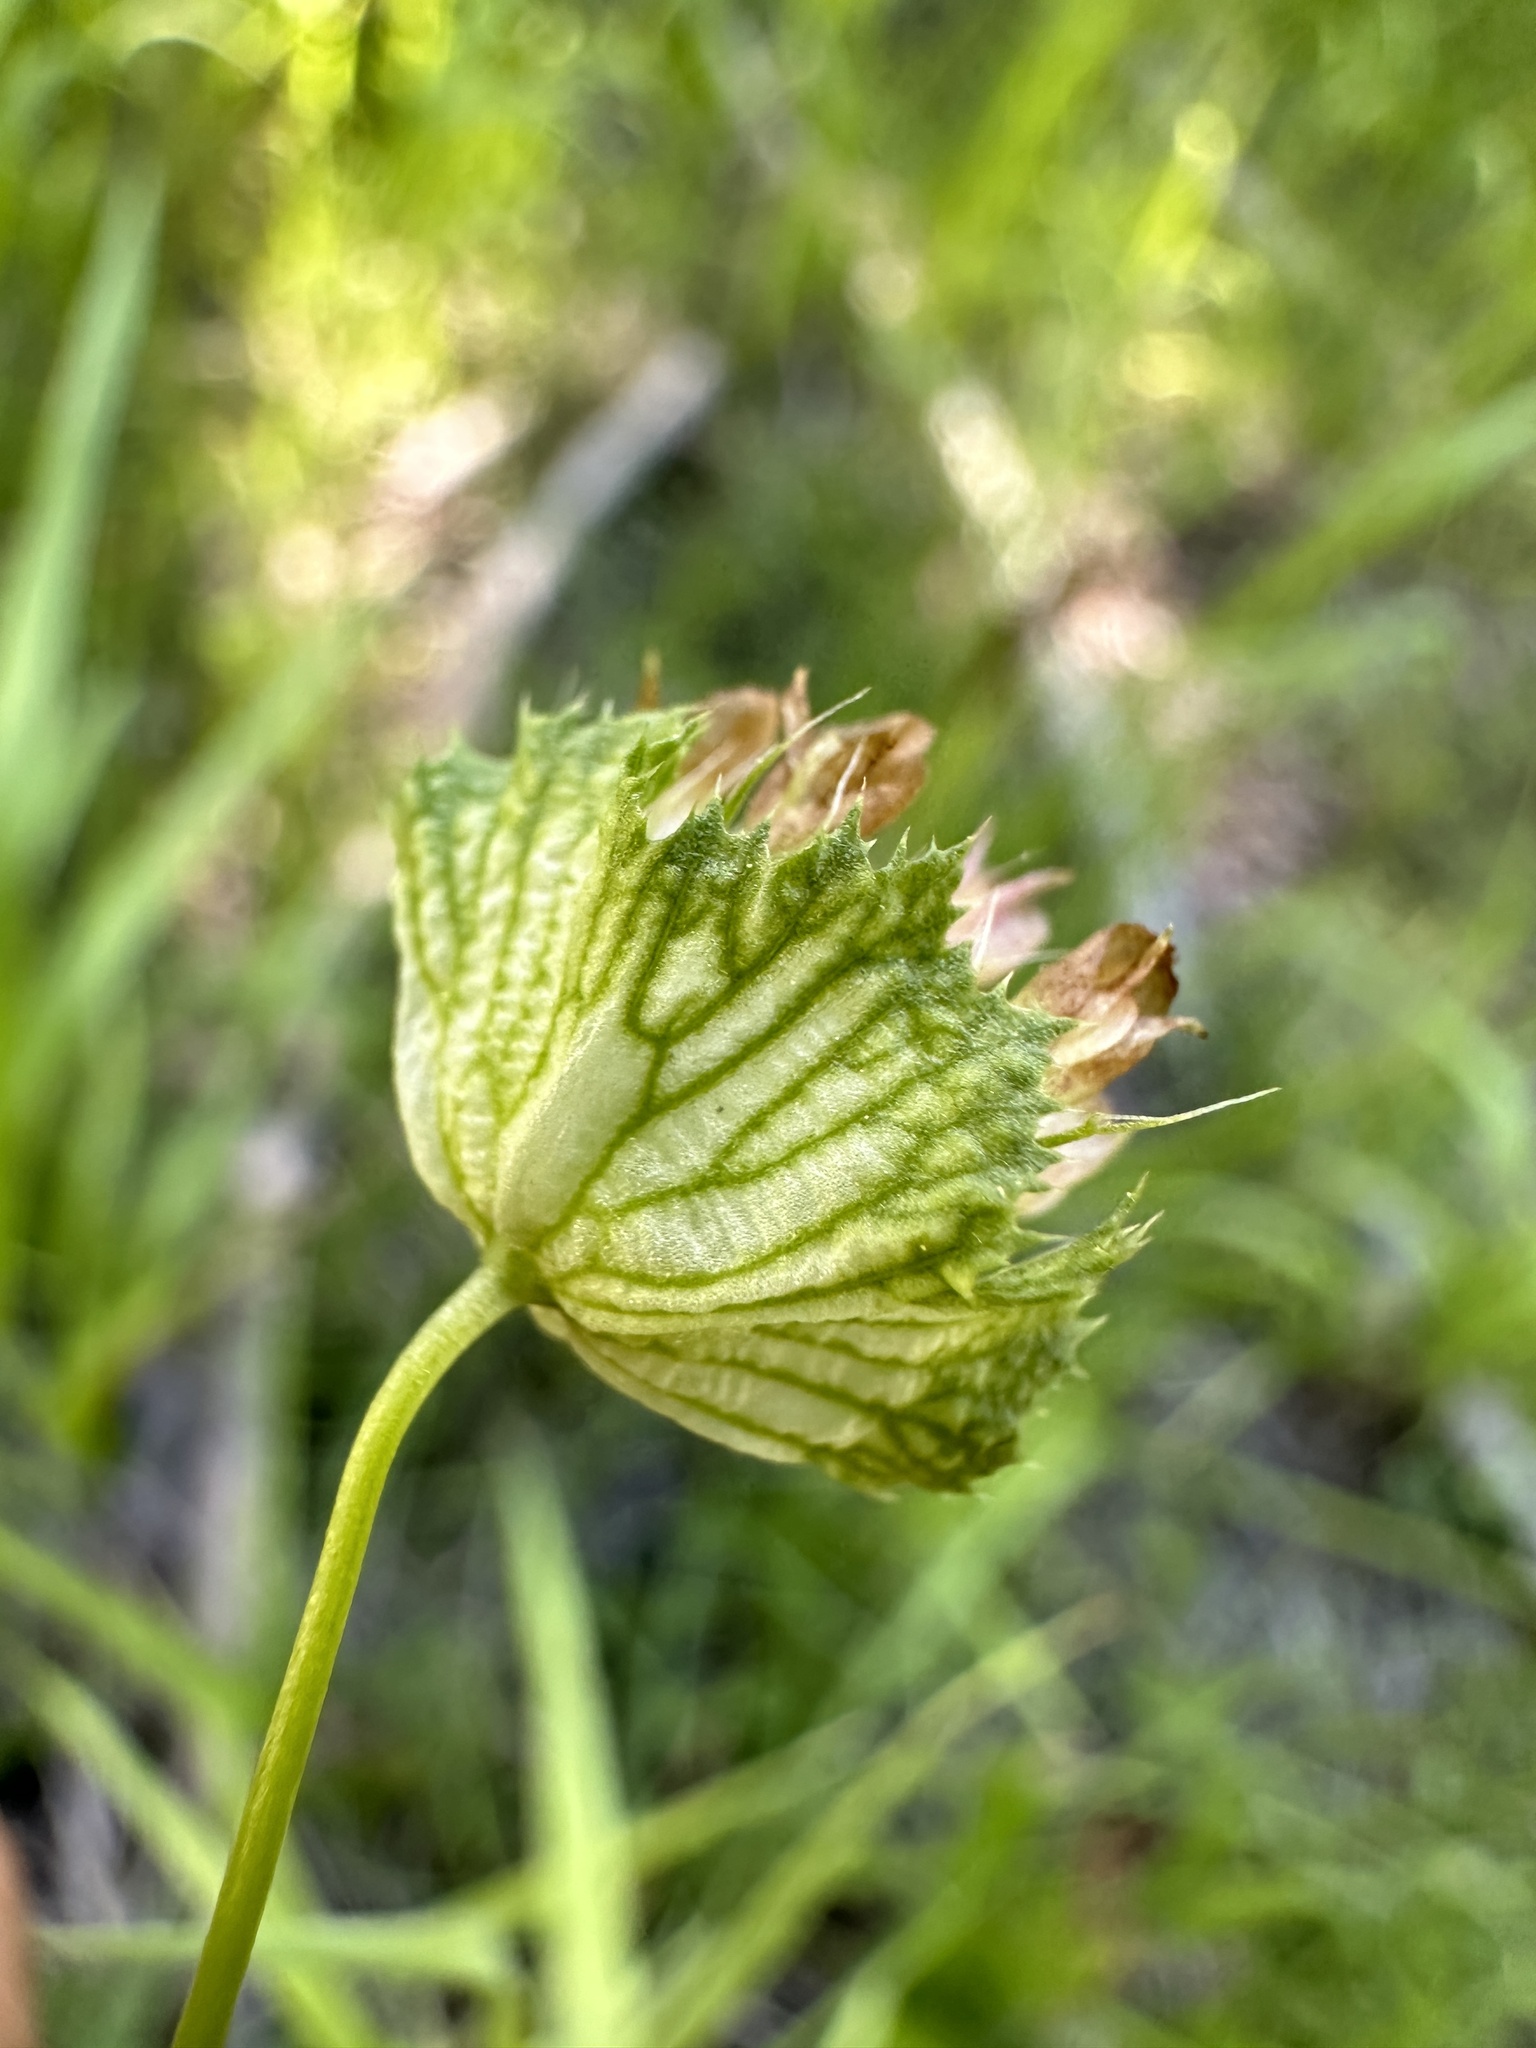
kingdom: Plantae
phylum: Tracheophyta
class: Magnoliopsida
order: Fabales
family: Fabaceae
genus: Trifolium
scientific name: Trifolium cyathiferum
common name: Bowl clover
